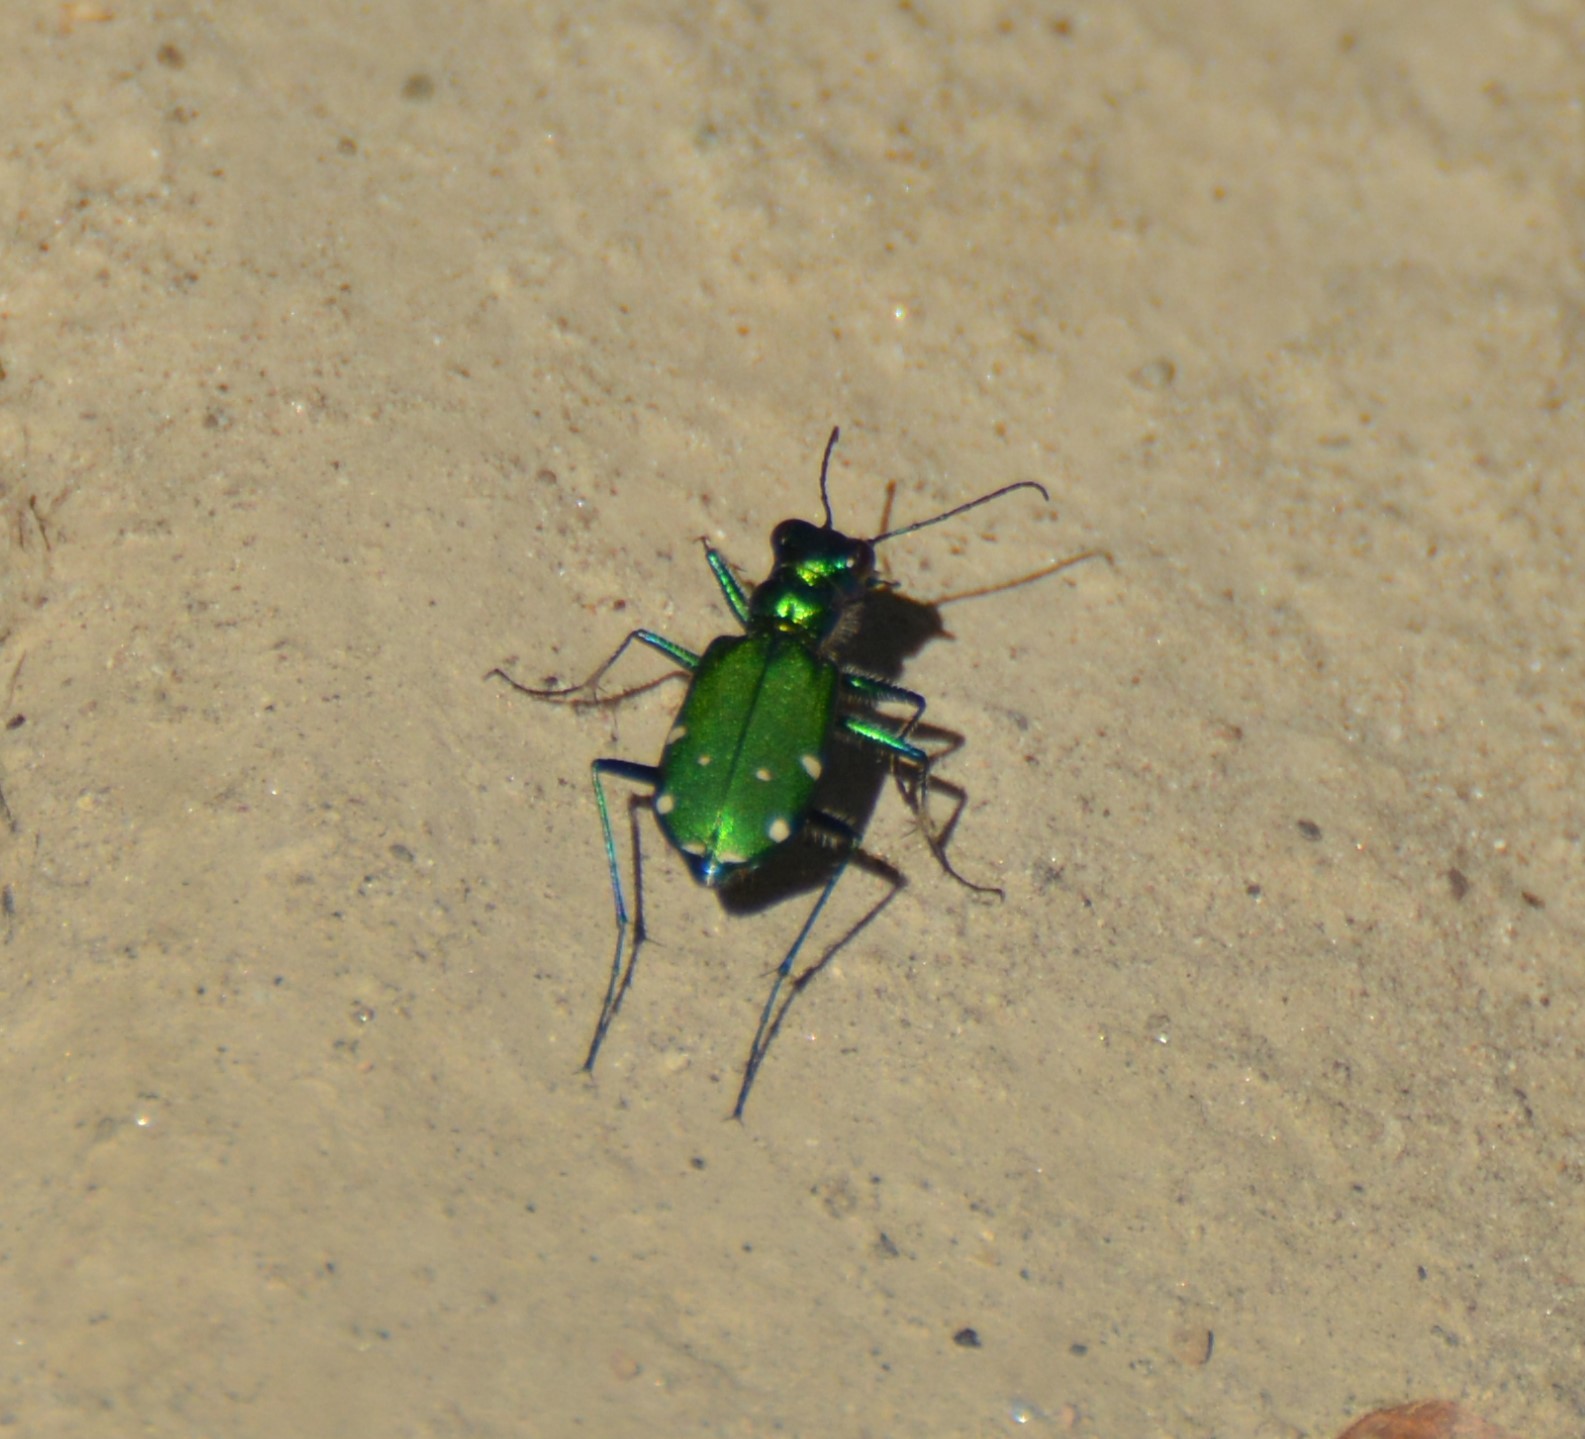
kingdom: Animalia
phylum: Arthropoda
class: Insecta
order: Coleoptera
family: Carabidae
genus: Cicindela
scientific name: Cicindela sexguttata
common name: Six-spotted tiger beetle
